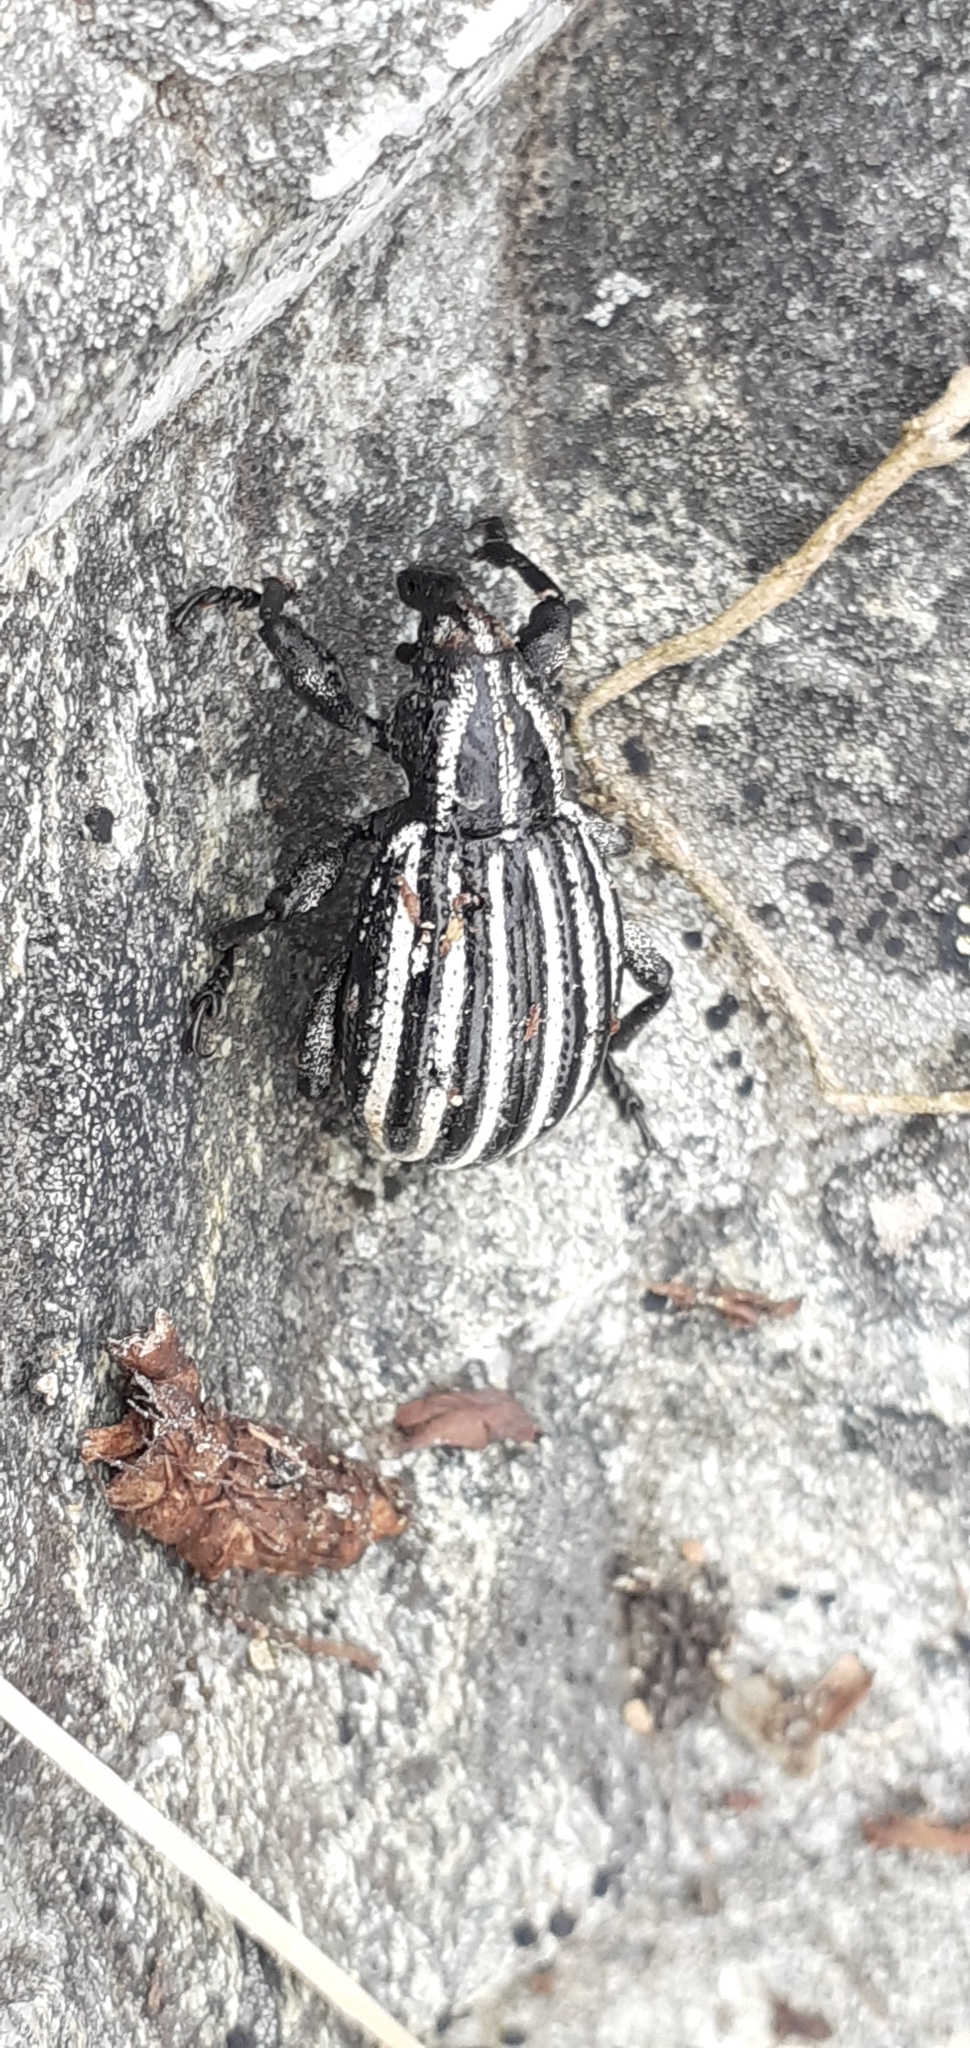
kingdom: Animalia
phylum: Arthropoda
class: Insecta
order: Coleoptera
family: Curculionidae
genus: Lyperobius
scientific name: Lyperobius hudsoni
